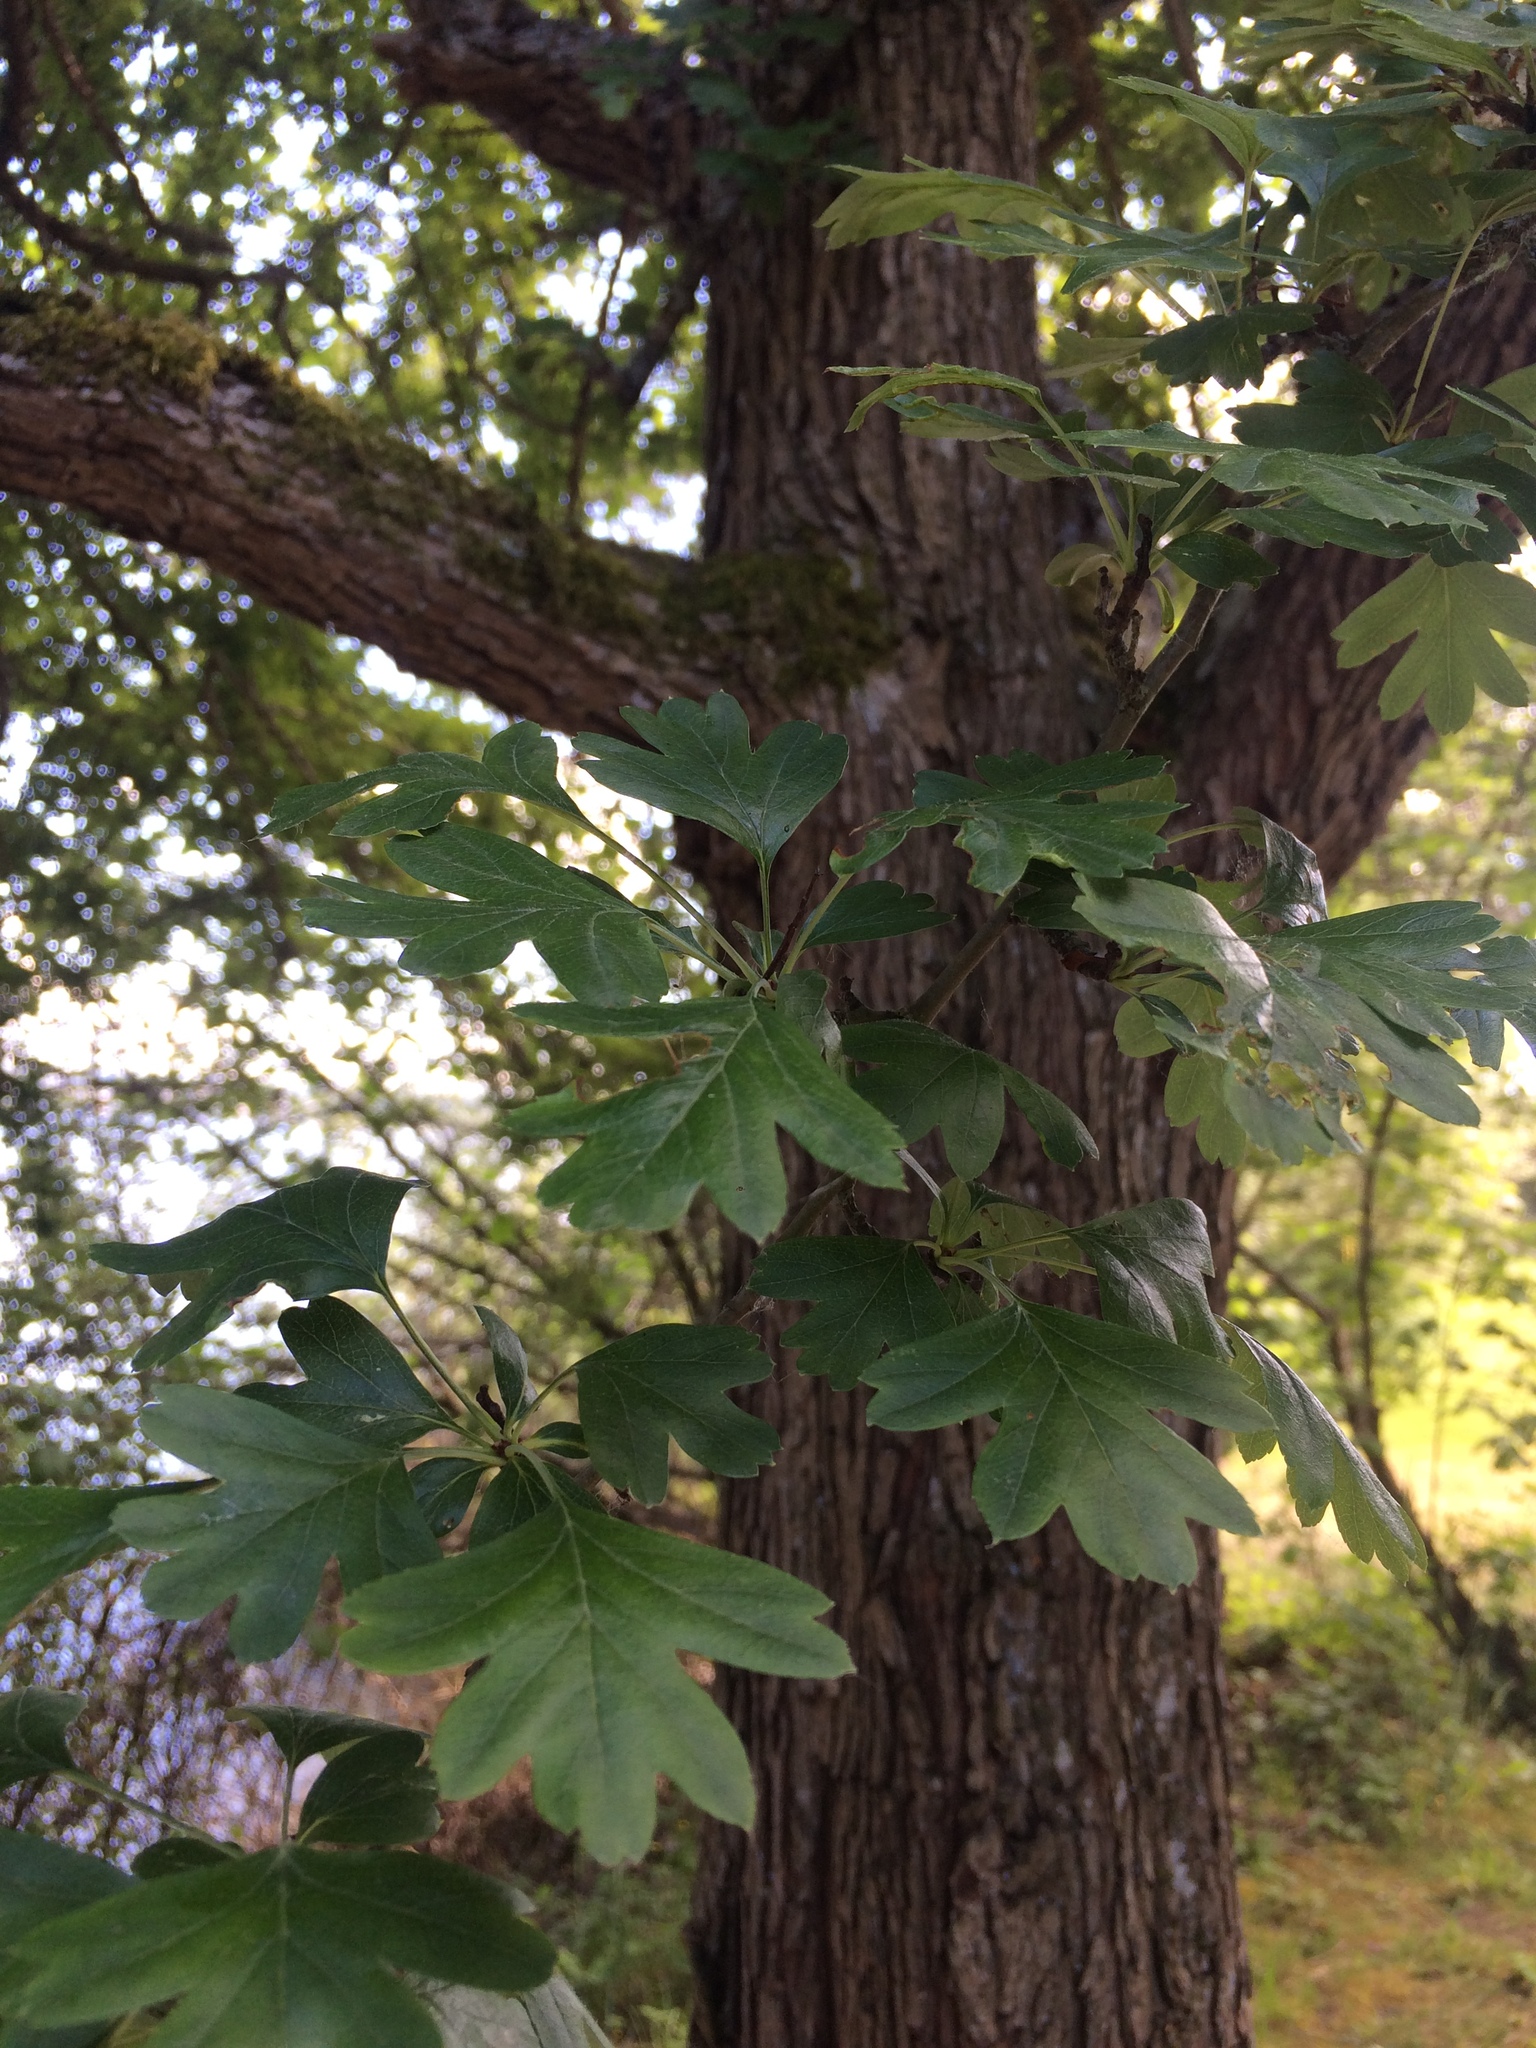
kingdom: Plantae
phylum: Tracheophyta
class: Magnoliopsida
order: Rosales
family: Rosaceae
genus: Crataegus
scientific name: Crataegus monogyna
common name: Hawthorn
